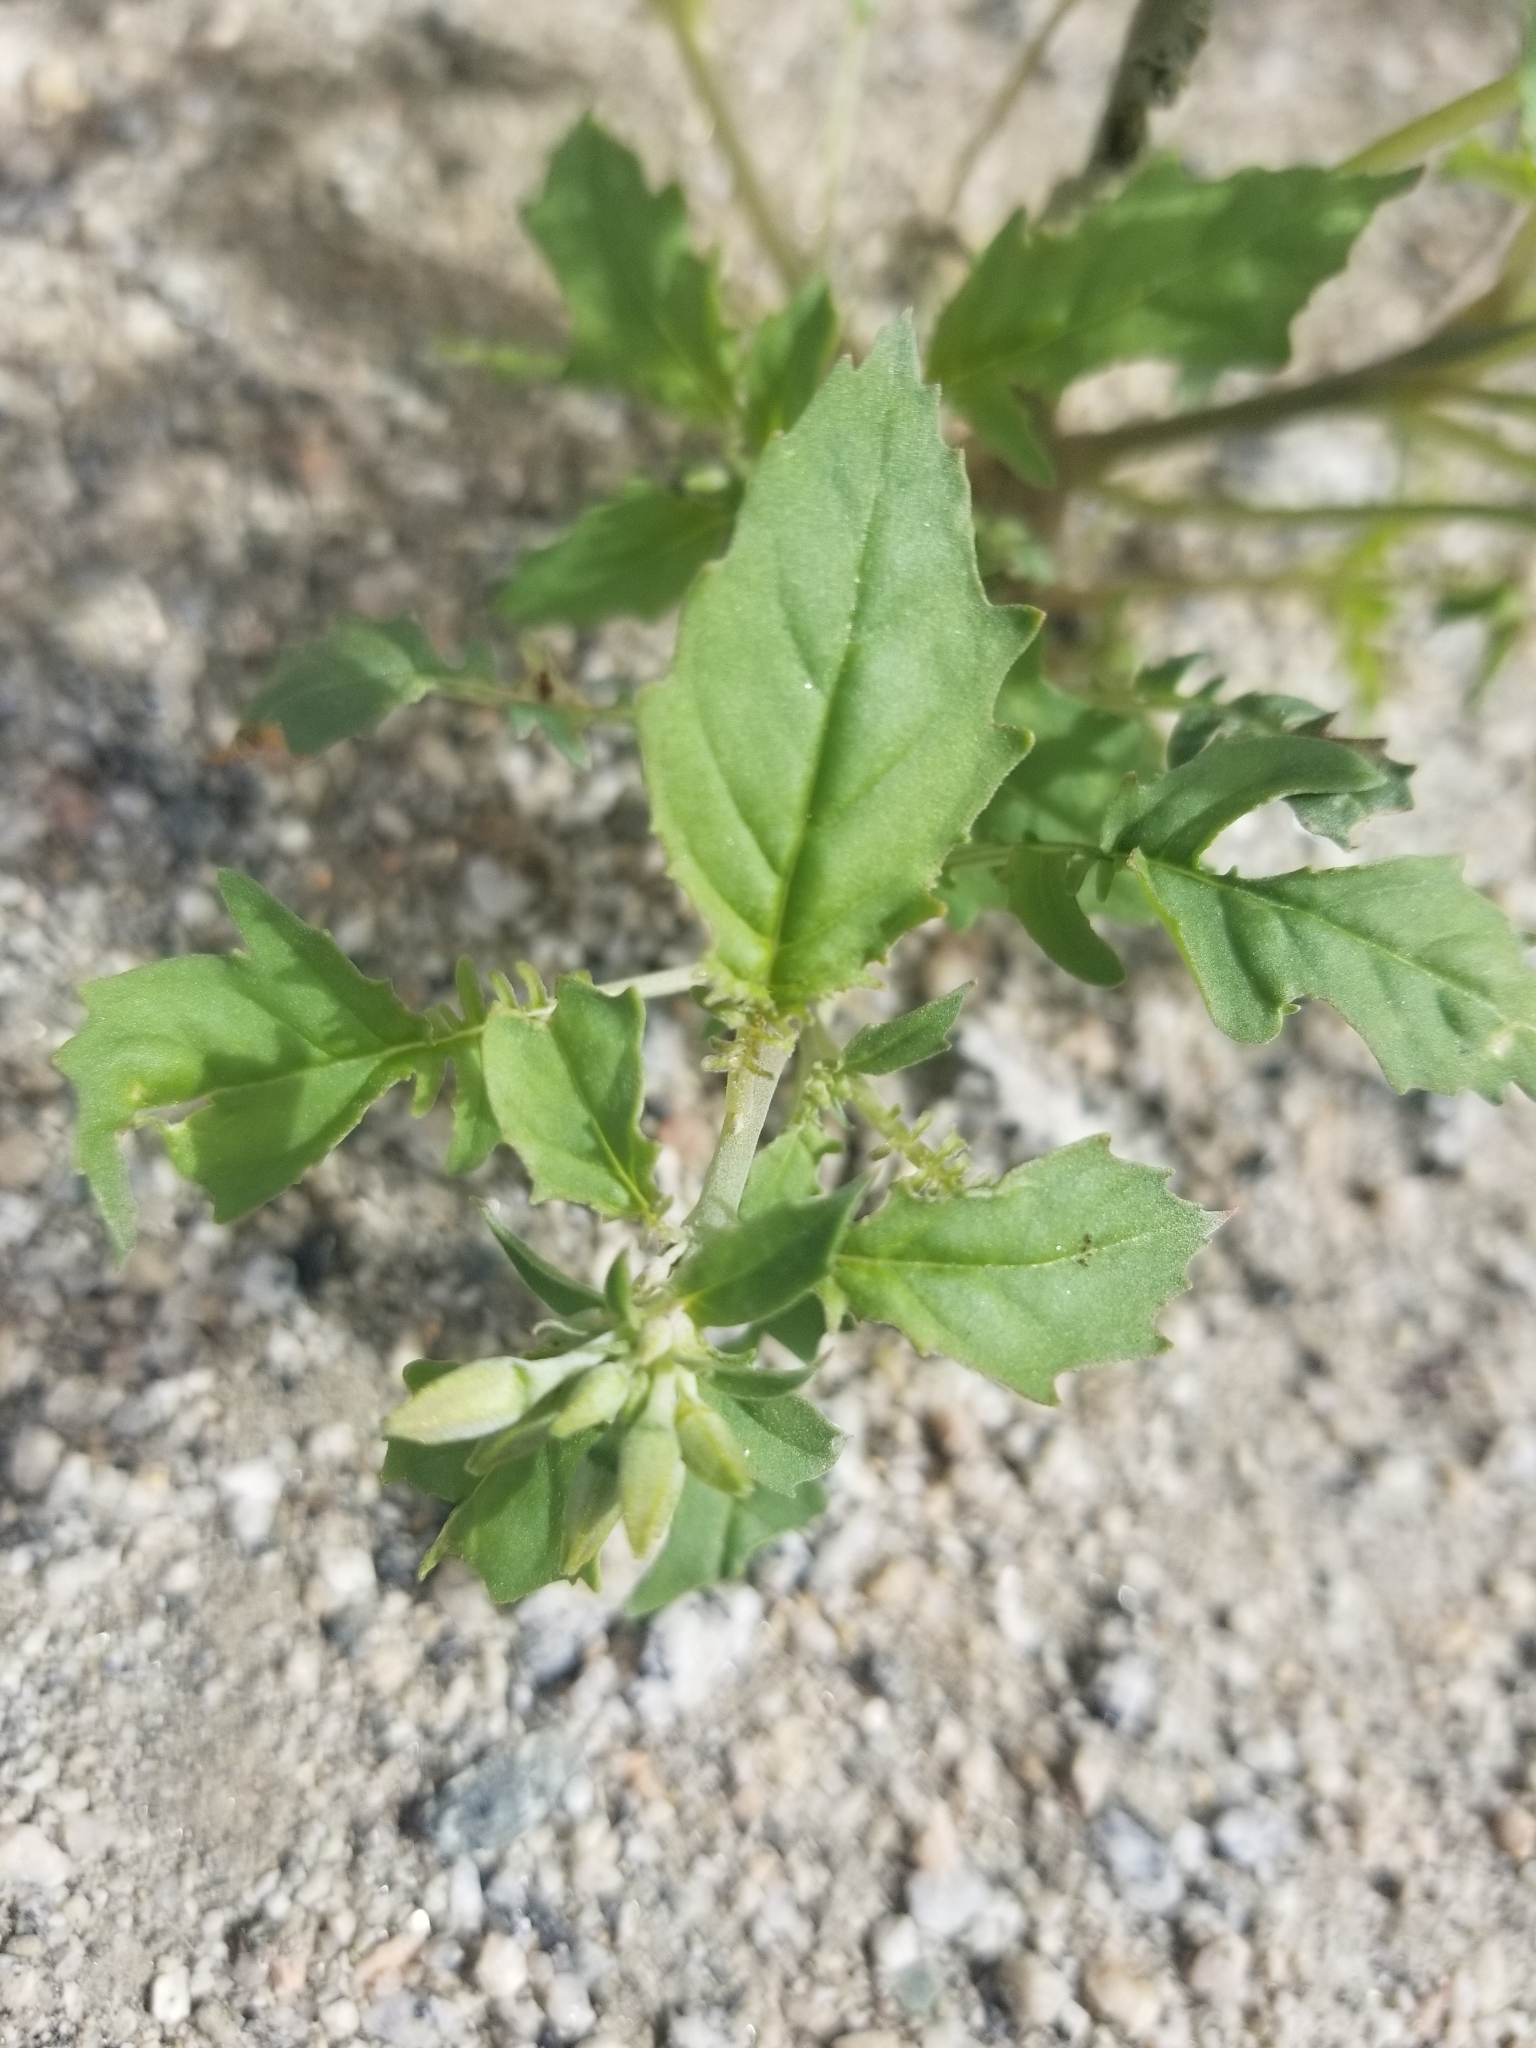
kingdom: Plantae
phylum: Tracheophyta
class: Magnoliopsida
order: Myrtales
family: Onagraceae
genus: Chylismia
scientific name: Chylismia claviformis
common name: Browneyes
